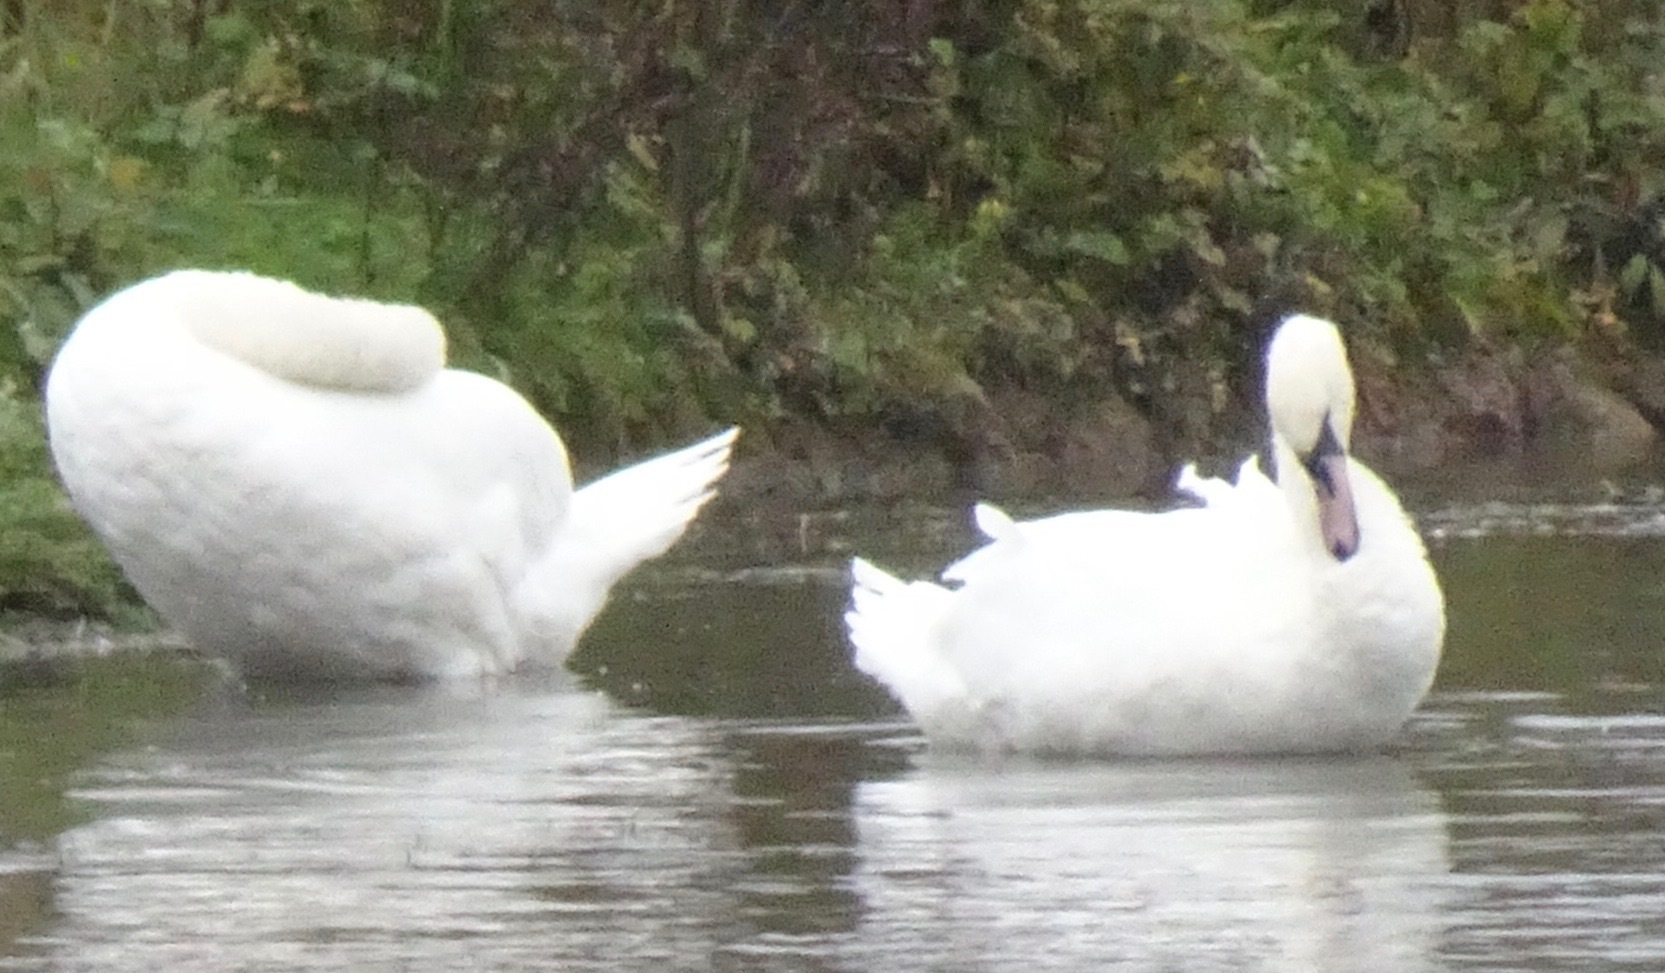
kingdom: Animalia
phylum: Chordata
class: Aves
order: Anseriformes
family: Anatidae
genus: Cygnus
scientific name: Cygnus olor
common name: Mute swan
